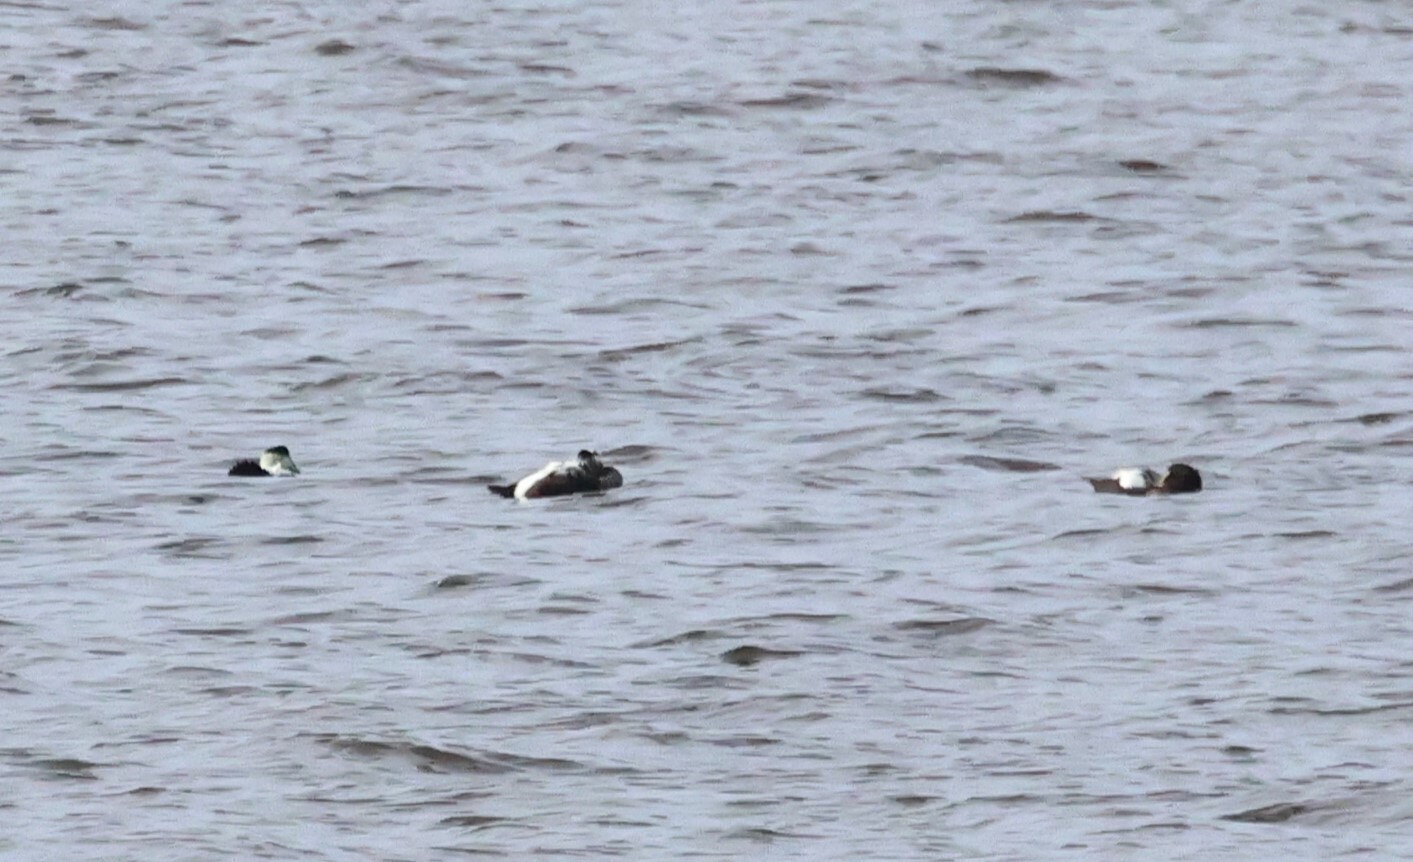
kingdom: Animalia
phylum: Chordata
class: Aves
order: Anseriformes
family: Anatidae
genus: Somateria
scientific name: Somateria mollissima
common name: Common eider
